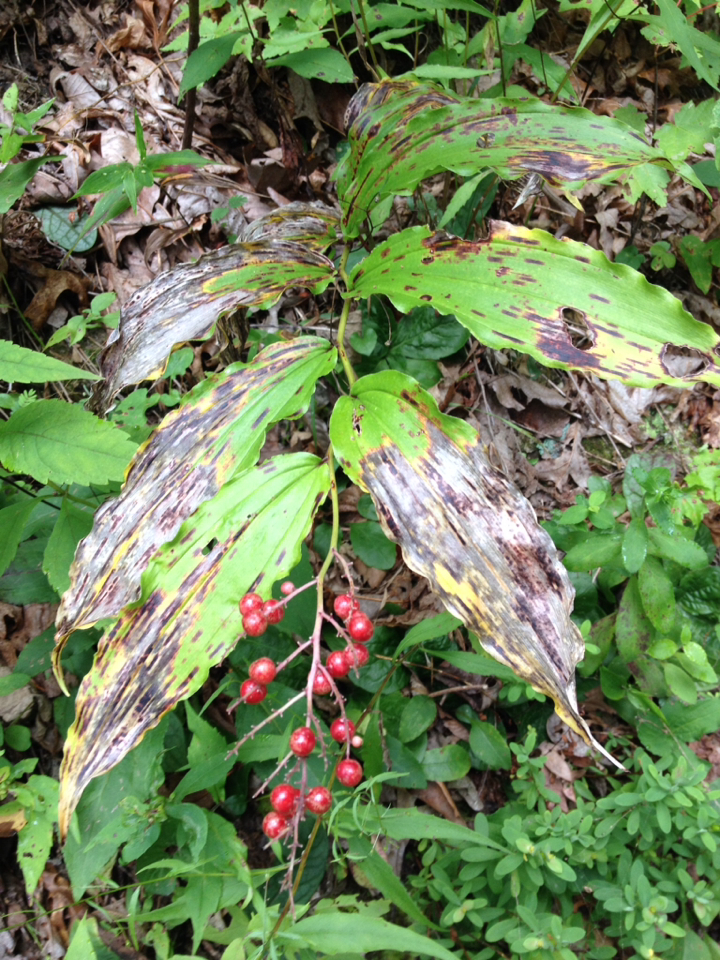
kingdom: Plantae
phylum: Tracheophyta
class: Liliopsida
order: Asparagales
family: Asparagaceae
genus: Maianthemum
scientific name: Maianthemum racemosum
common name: False spikenard
